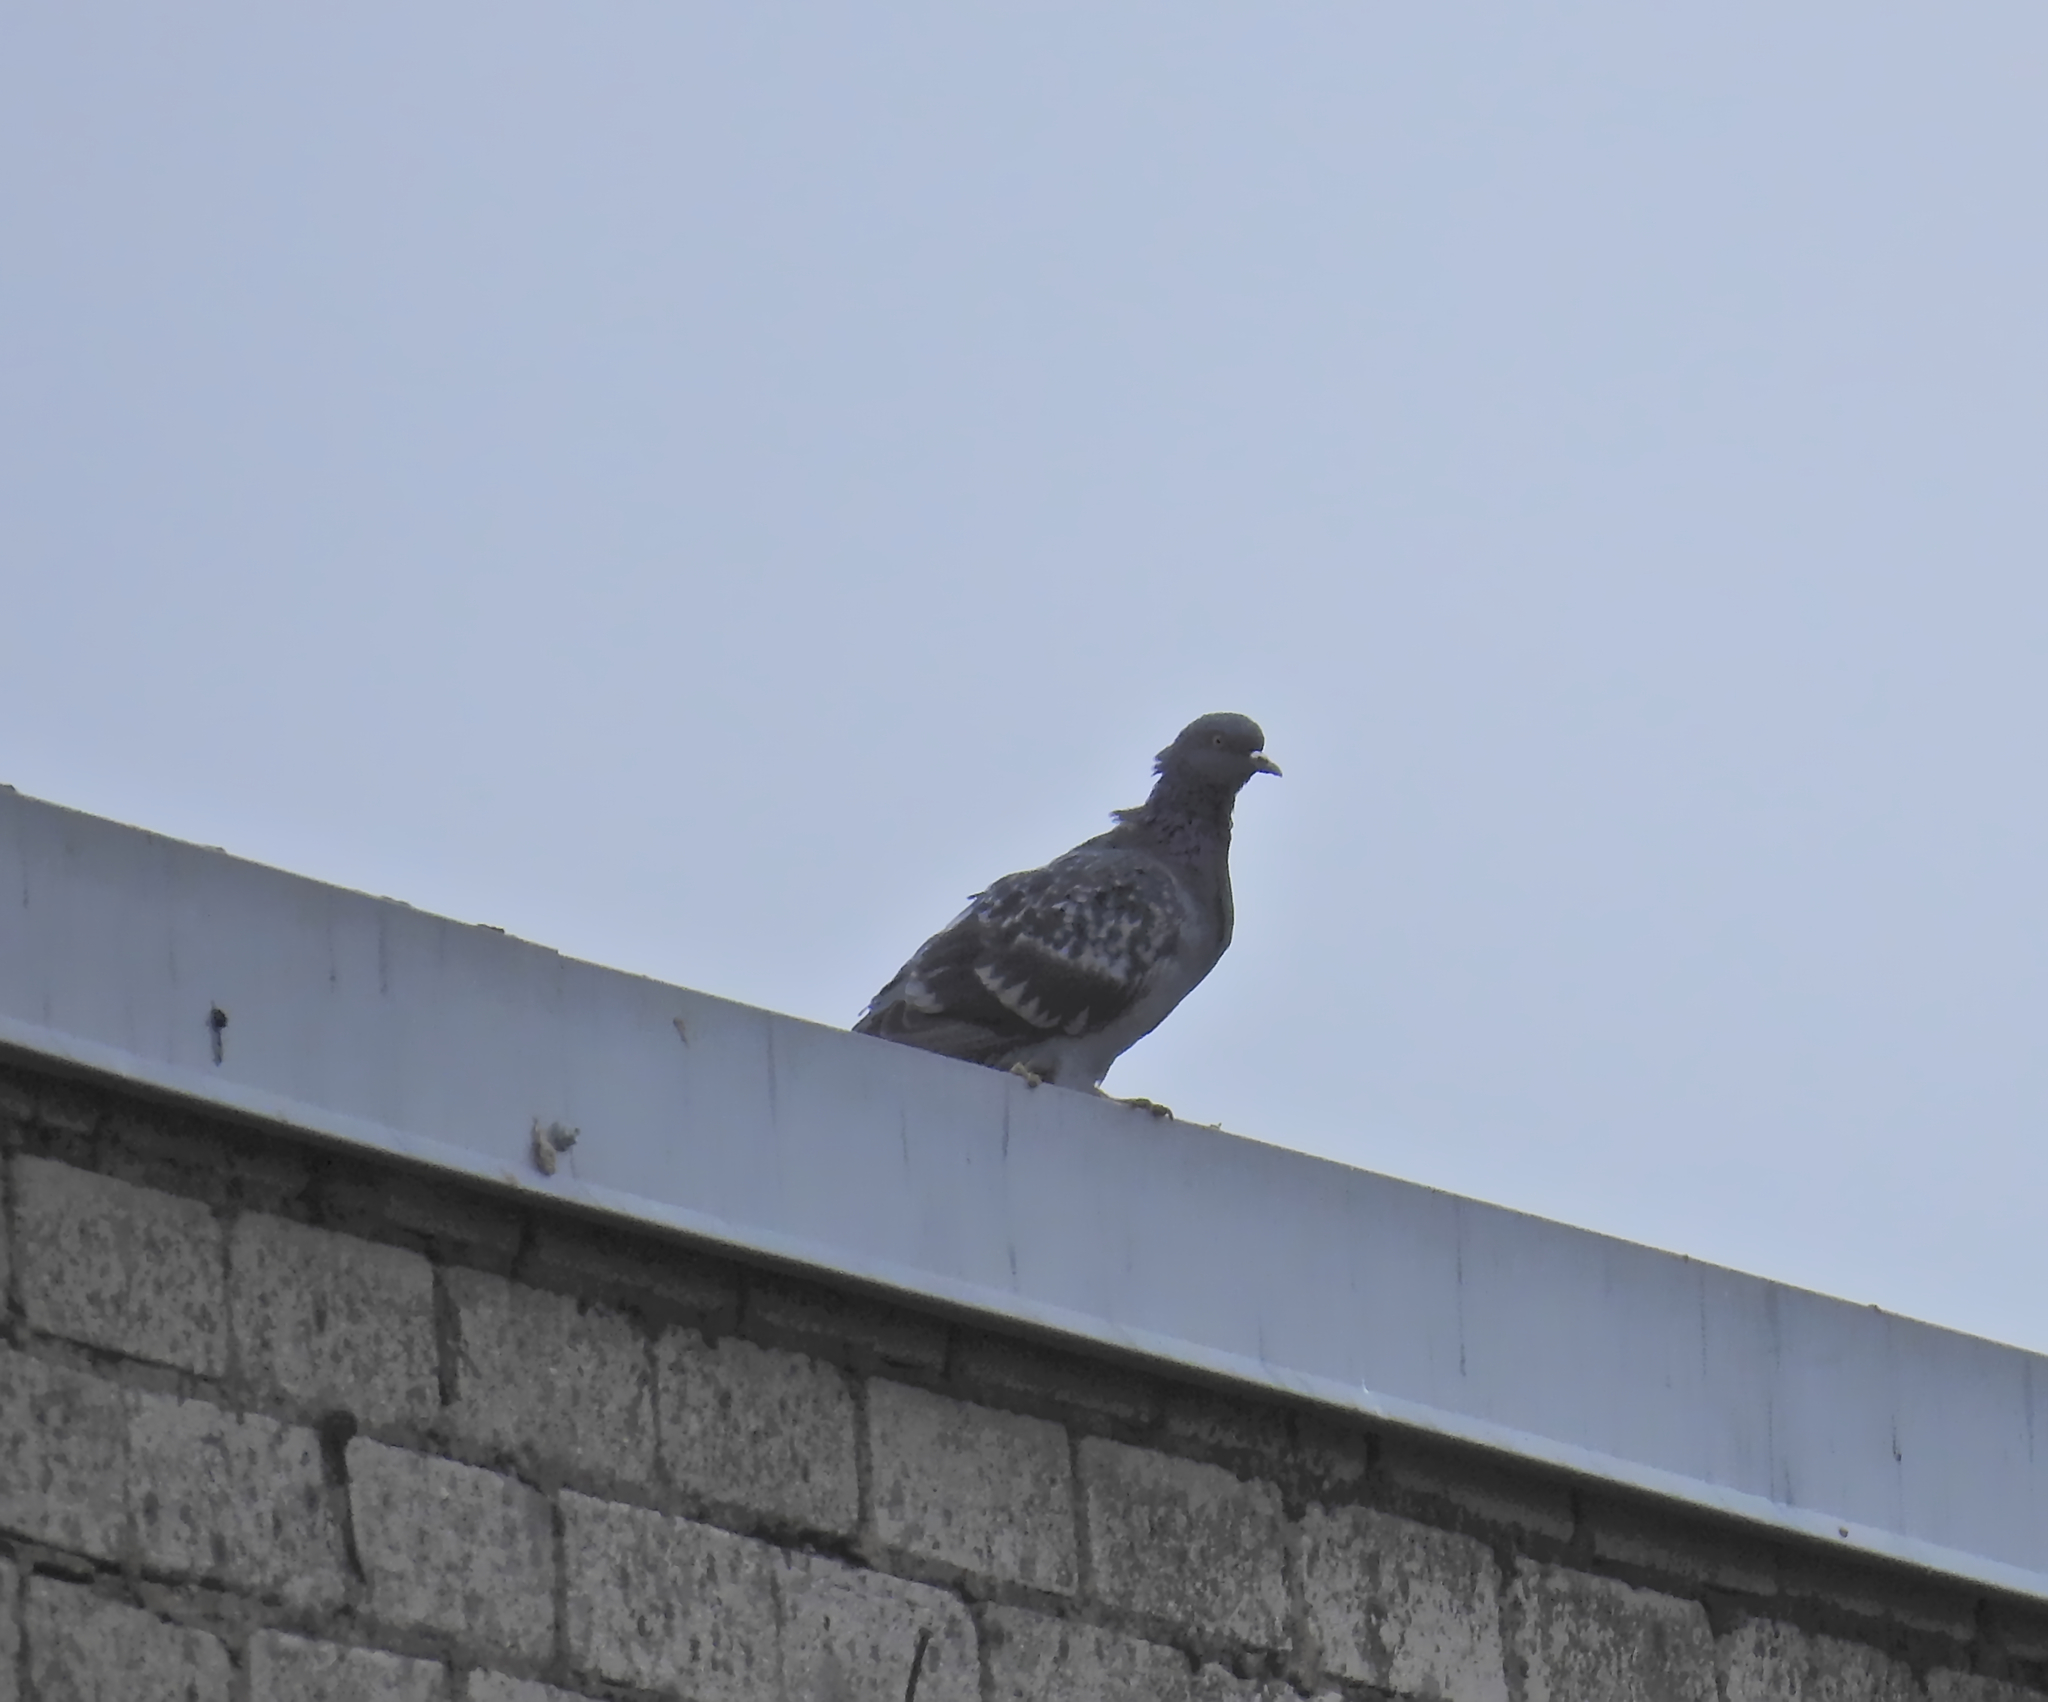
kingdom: Animalia
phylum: Chordata
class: Aves
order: Columbiformes
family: Columbidae
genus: Columba
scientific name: Columba livia
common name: Rock pigeon
